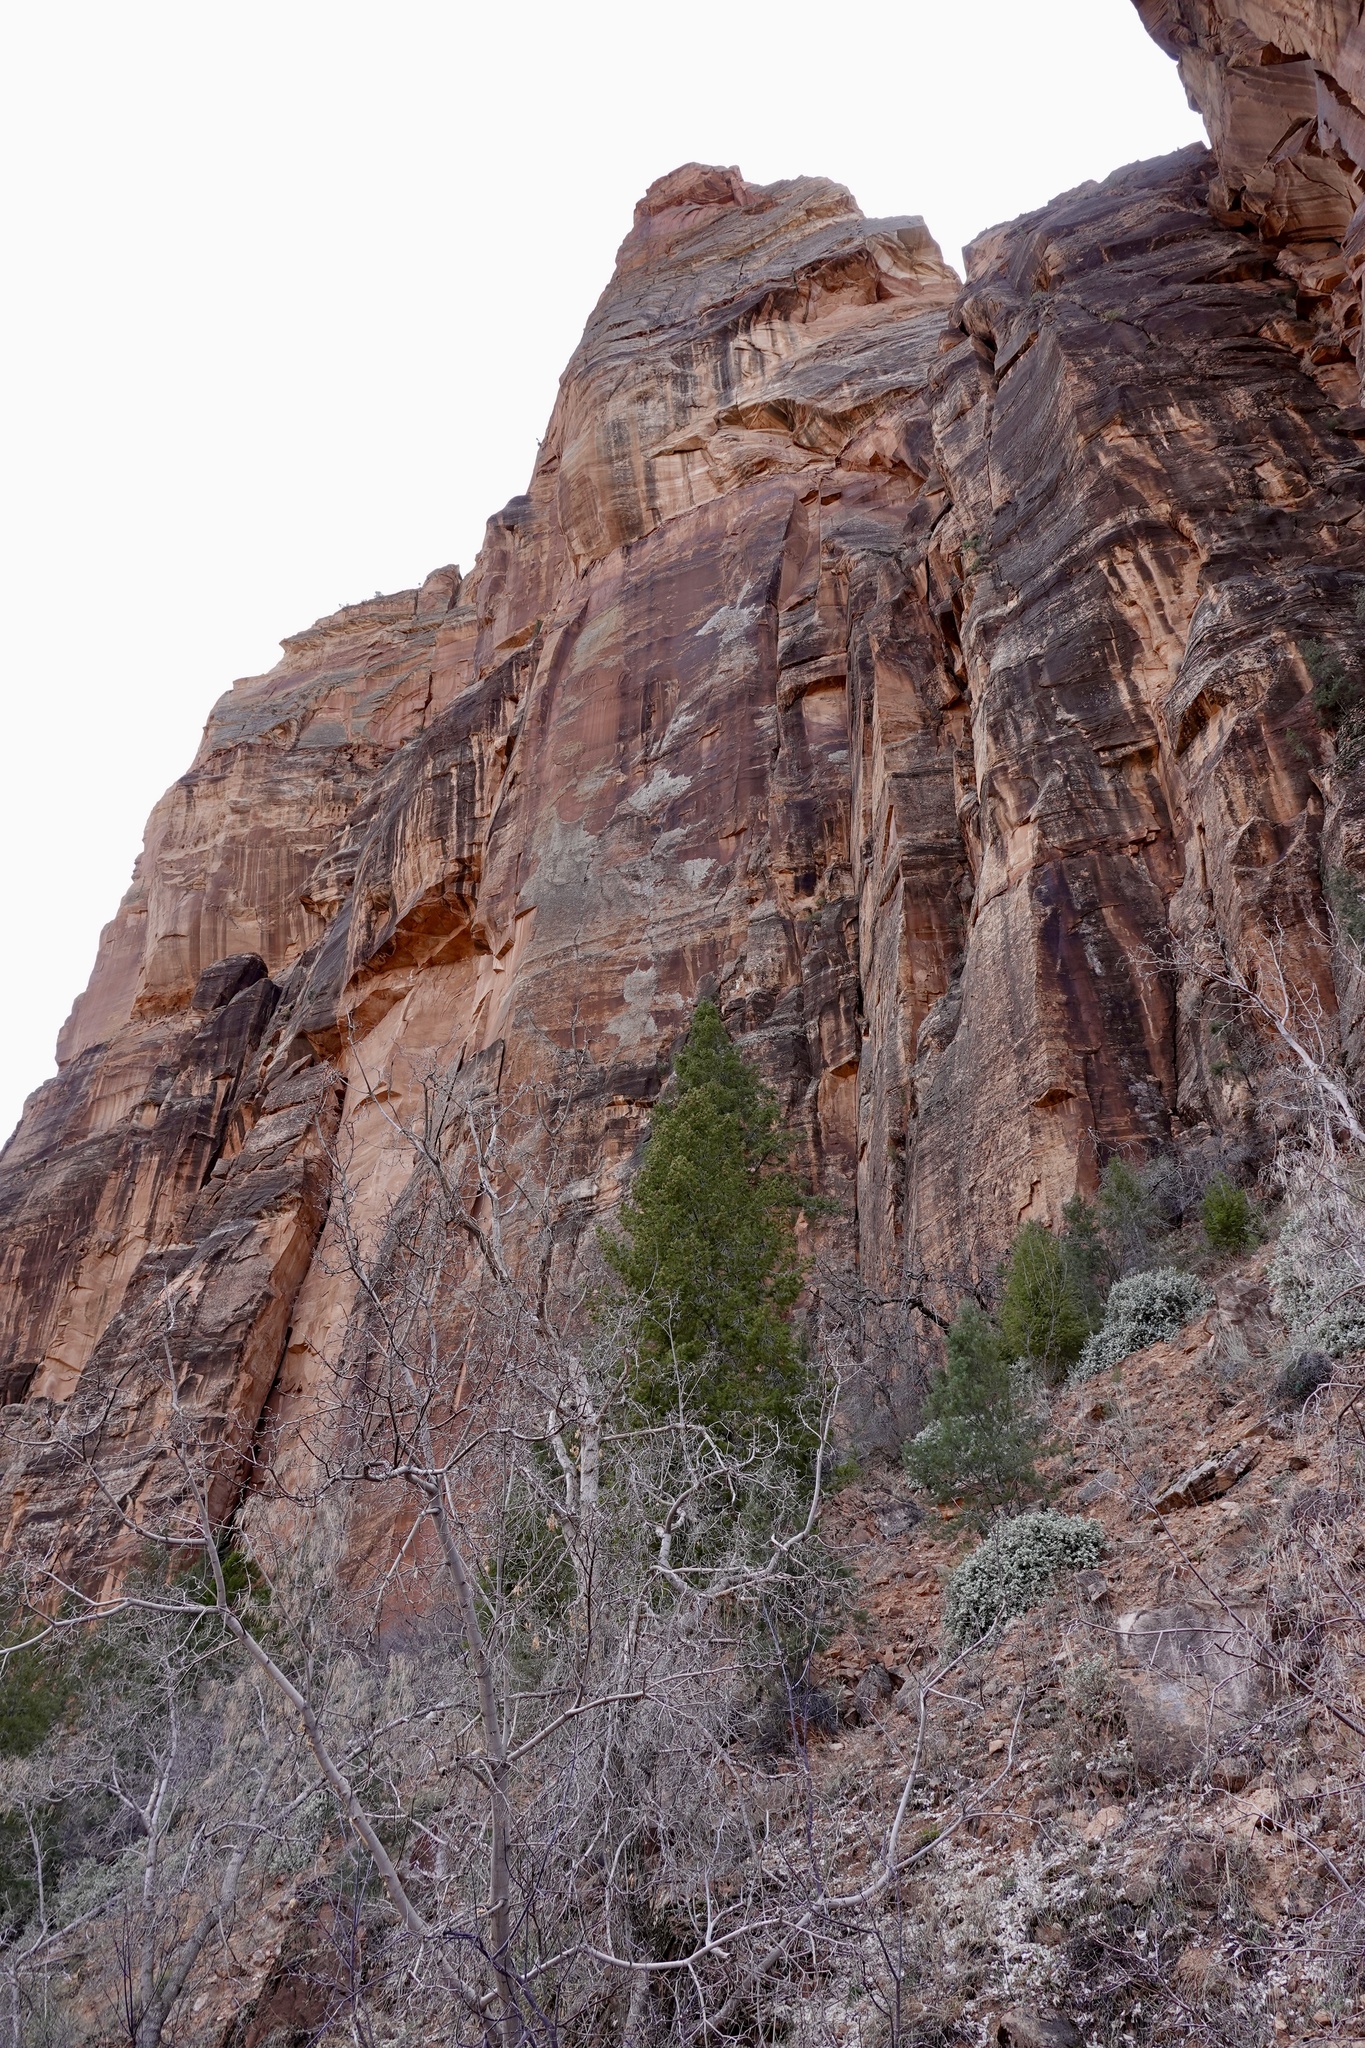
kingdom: Plantae
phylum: Tracheophyta
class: Pinopsida
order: Pinales
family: Pinaceae
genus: Pseudotsuga
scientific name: Pseudotsuga menziesii
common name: Douglas fir
